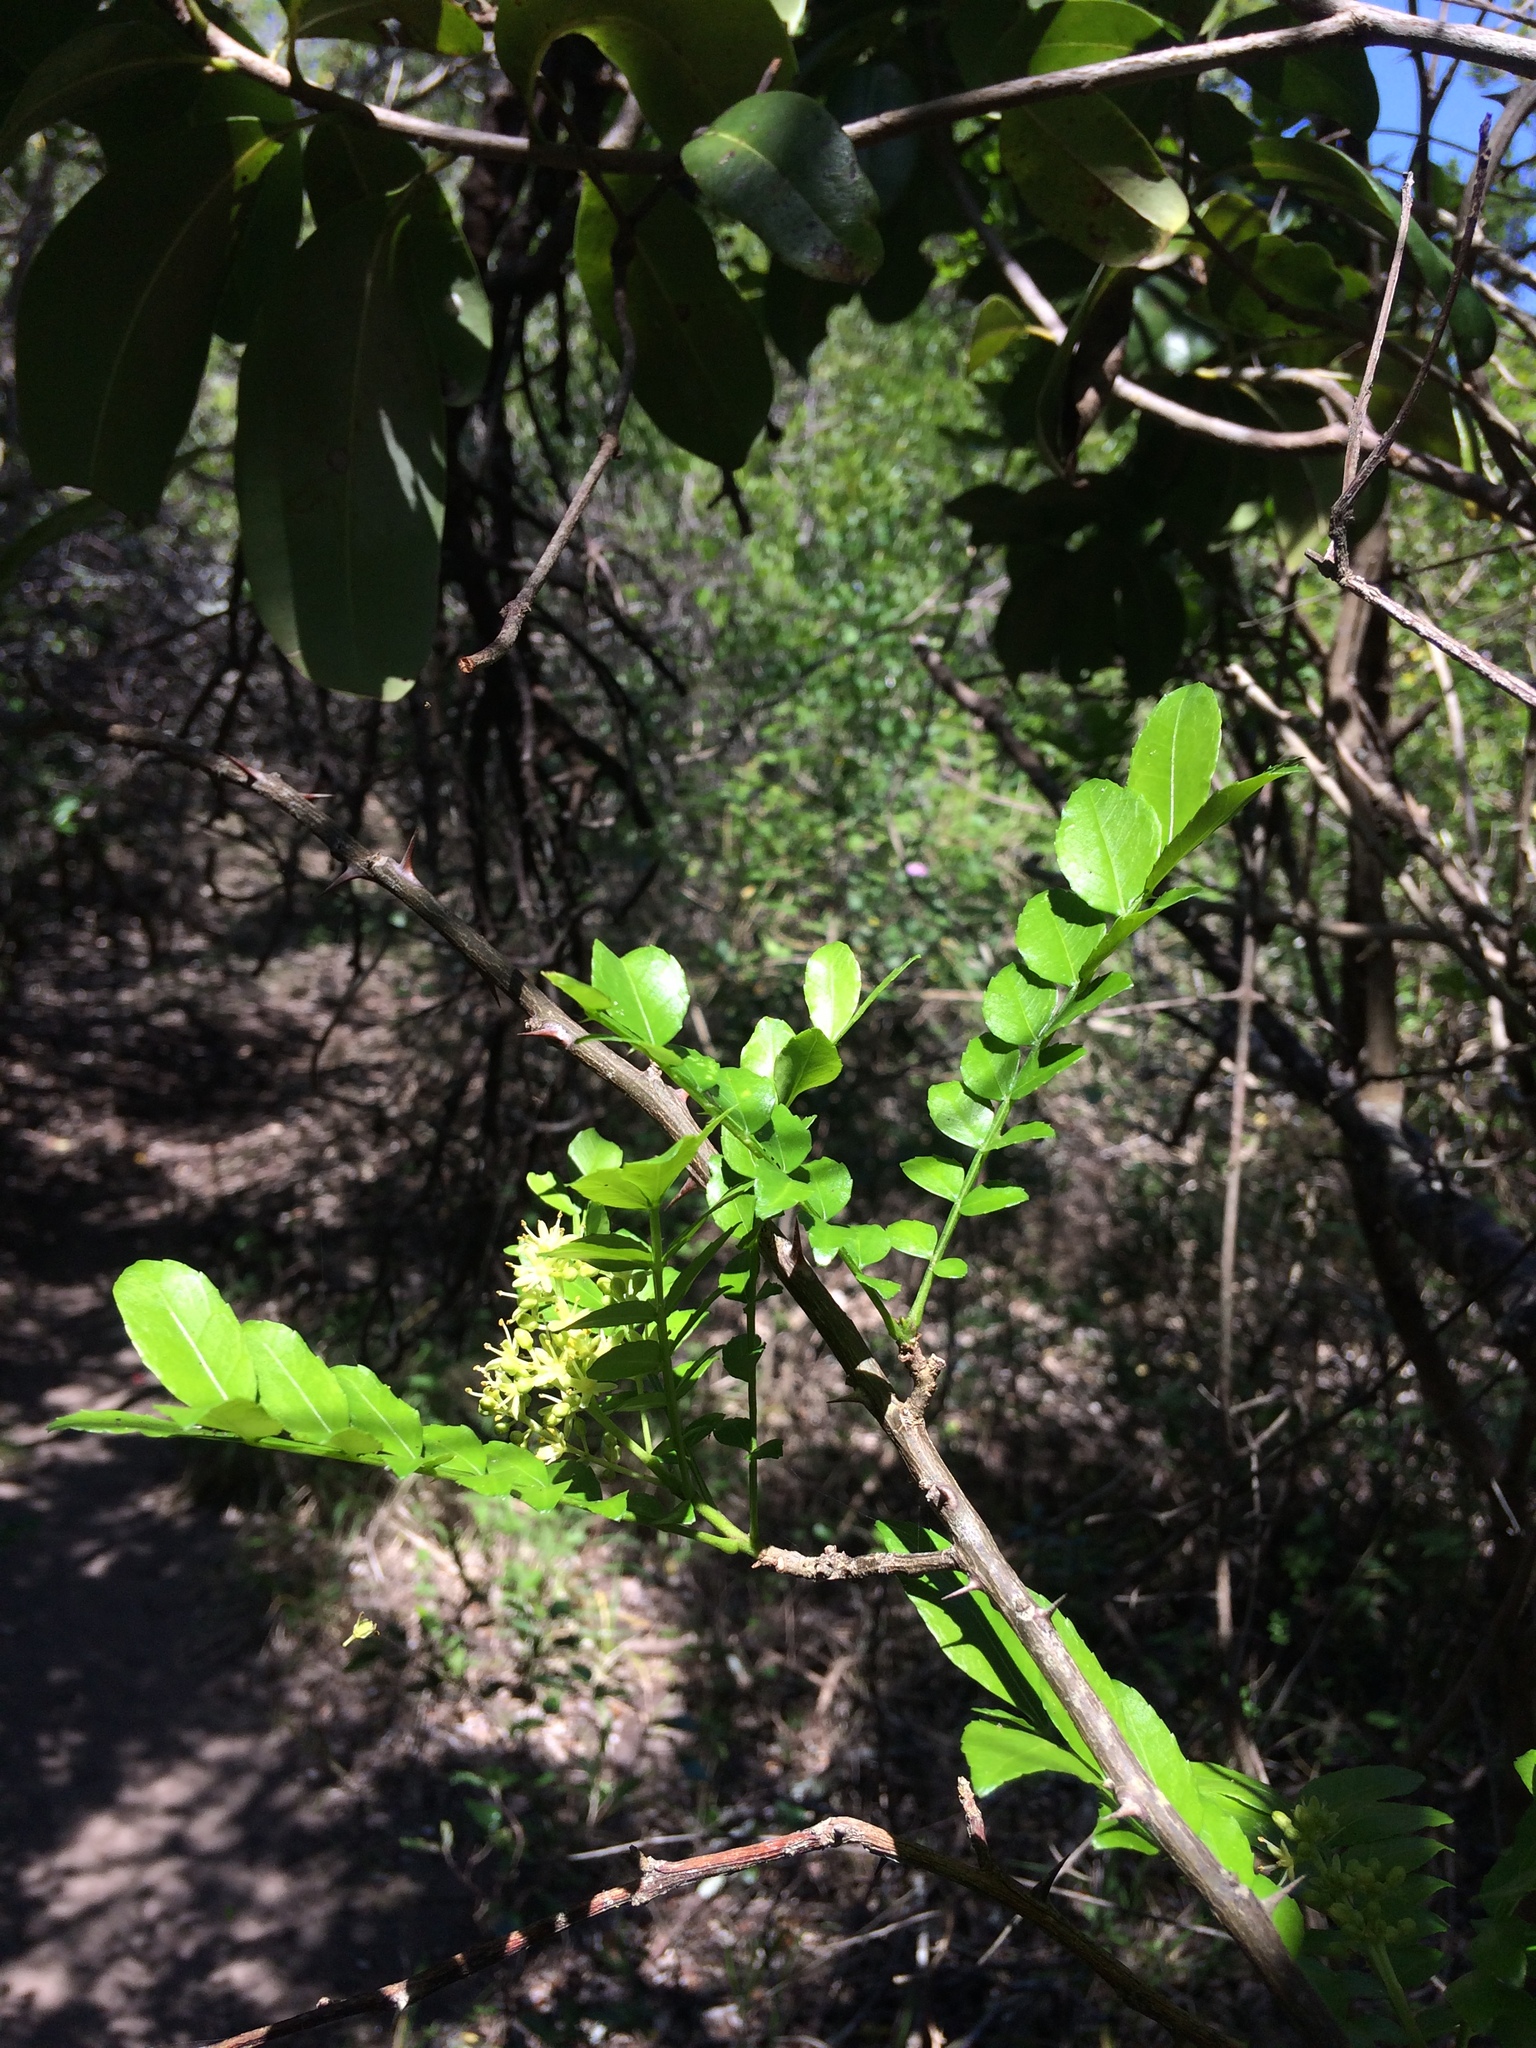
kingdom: Plantae
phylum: Tracheophyta
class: Magnoliopsida
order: Sapindales
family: Rutaceae
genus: Zanthoxylum
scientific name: Zanthoxylum capense
